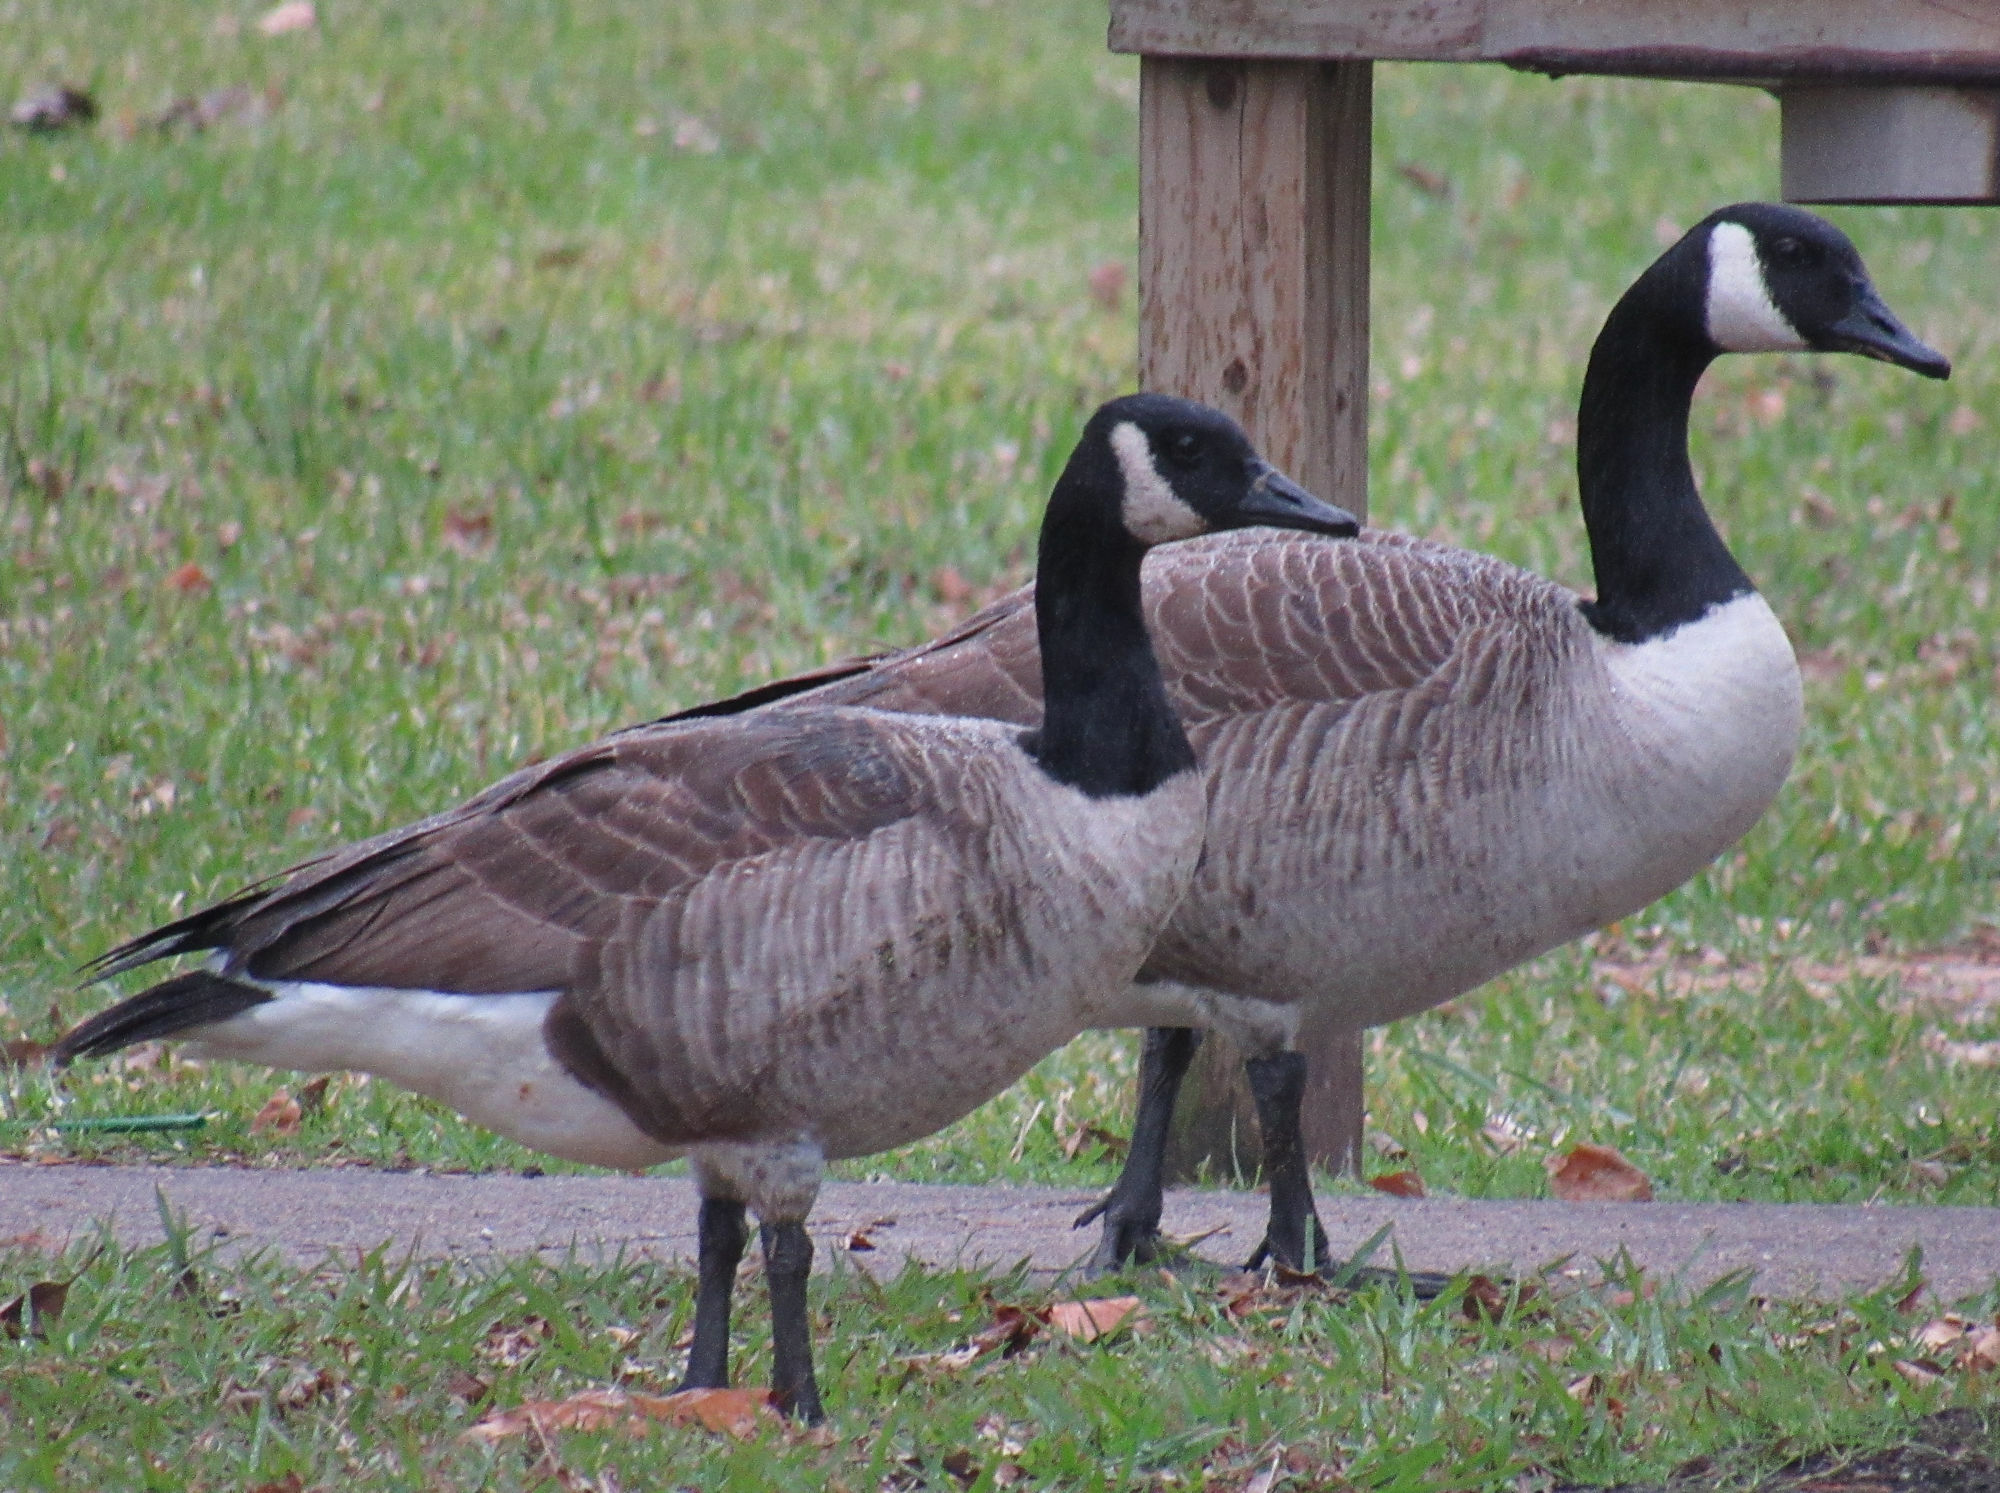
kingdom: Animalia
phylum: Chordata
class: Aves
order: Anseriformes
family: Anatidae
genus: Branta
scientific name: Branta canadensis
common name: Canada goose
